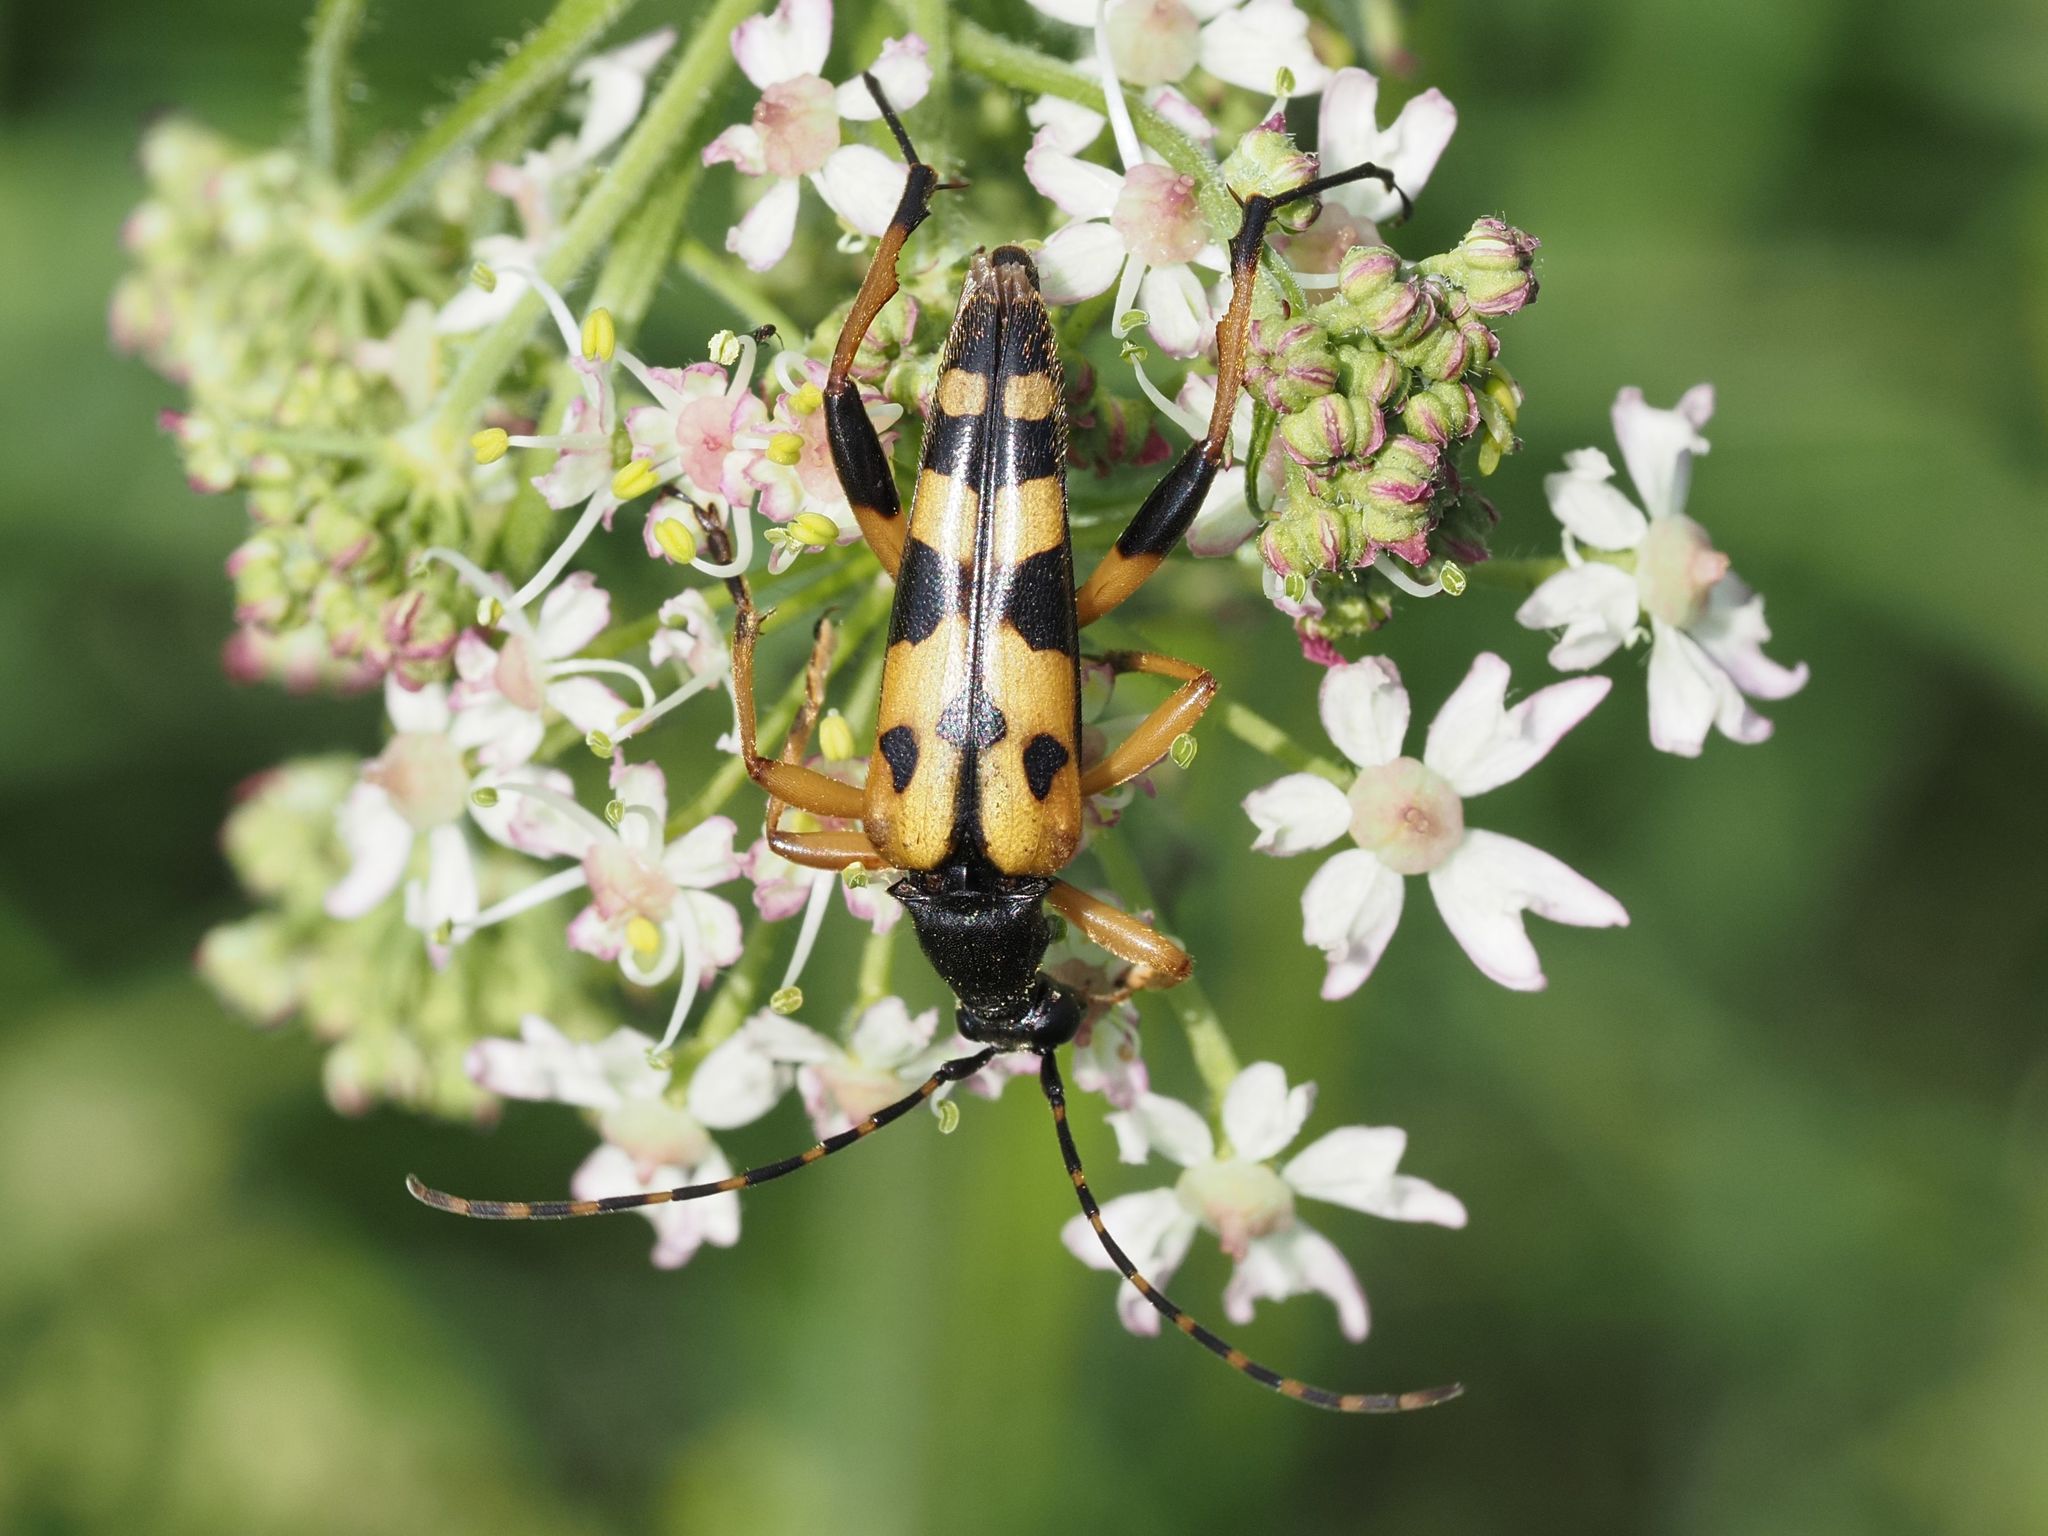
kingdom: Animalia
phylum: Arthropoda
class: Insecta
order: Coleoptera
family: Cerambycidae
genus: Rutpela
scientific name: Rutpela maculata
